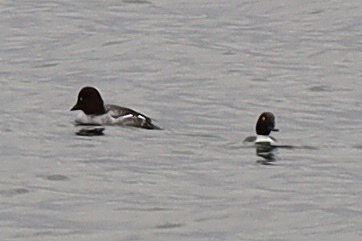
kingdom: Animalia
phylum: Chordata
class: Aves
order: Anseriformes
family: Anatidae
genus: Bucephala
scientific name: Bucephala clangula
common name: Common goldeneye
